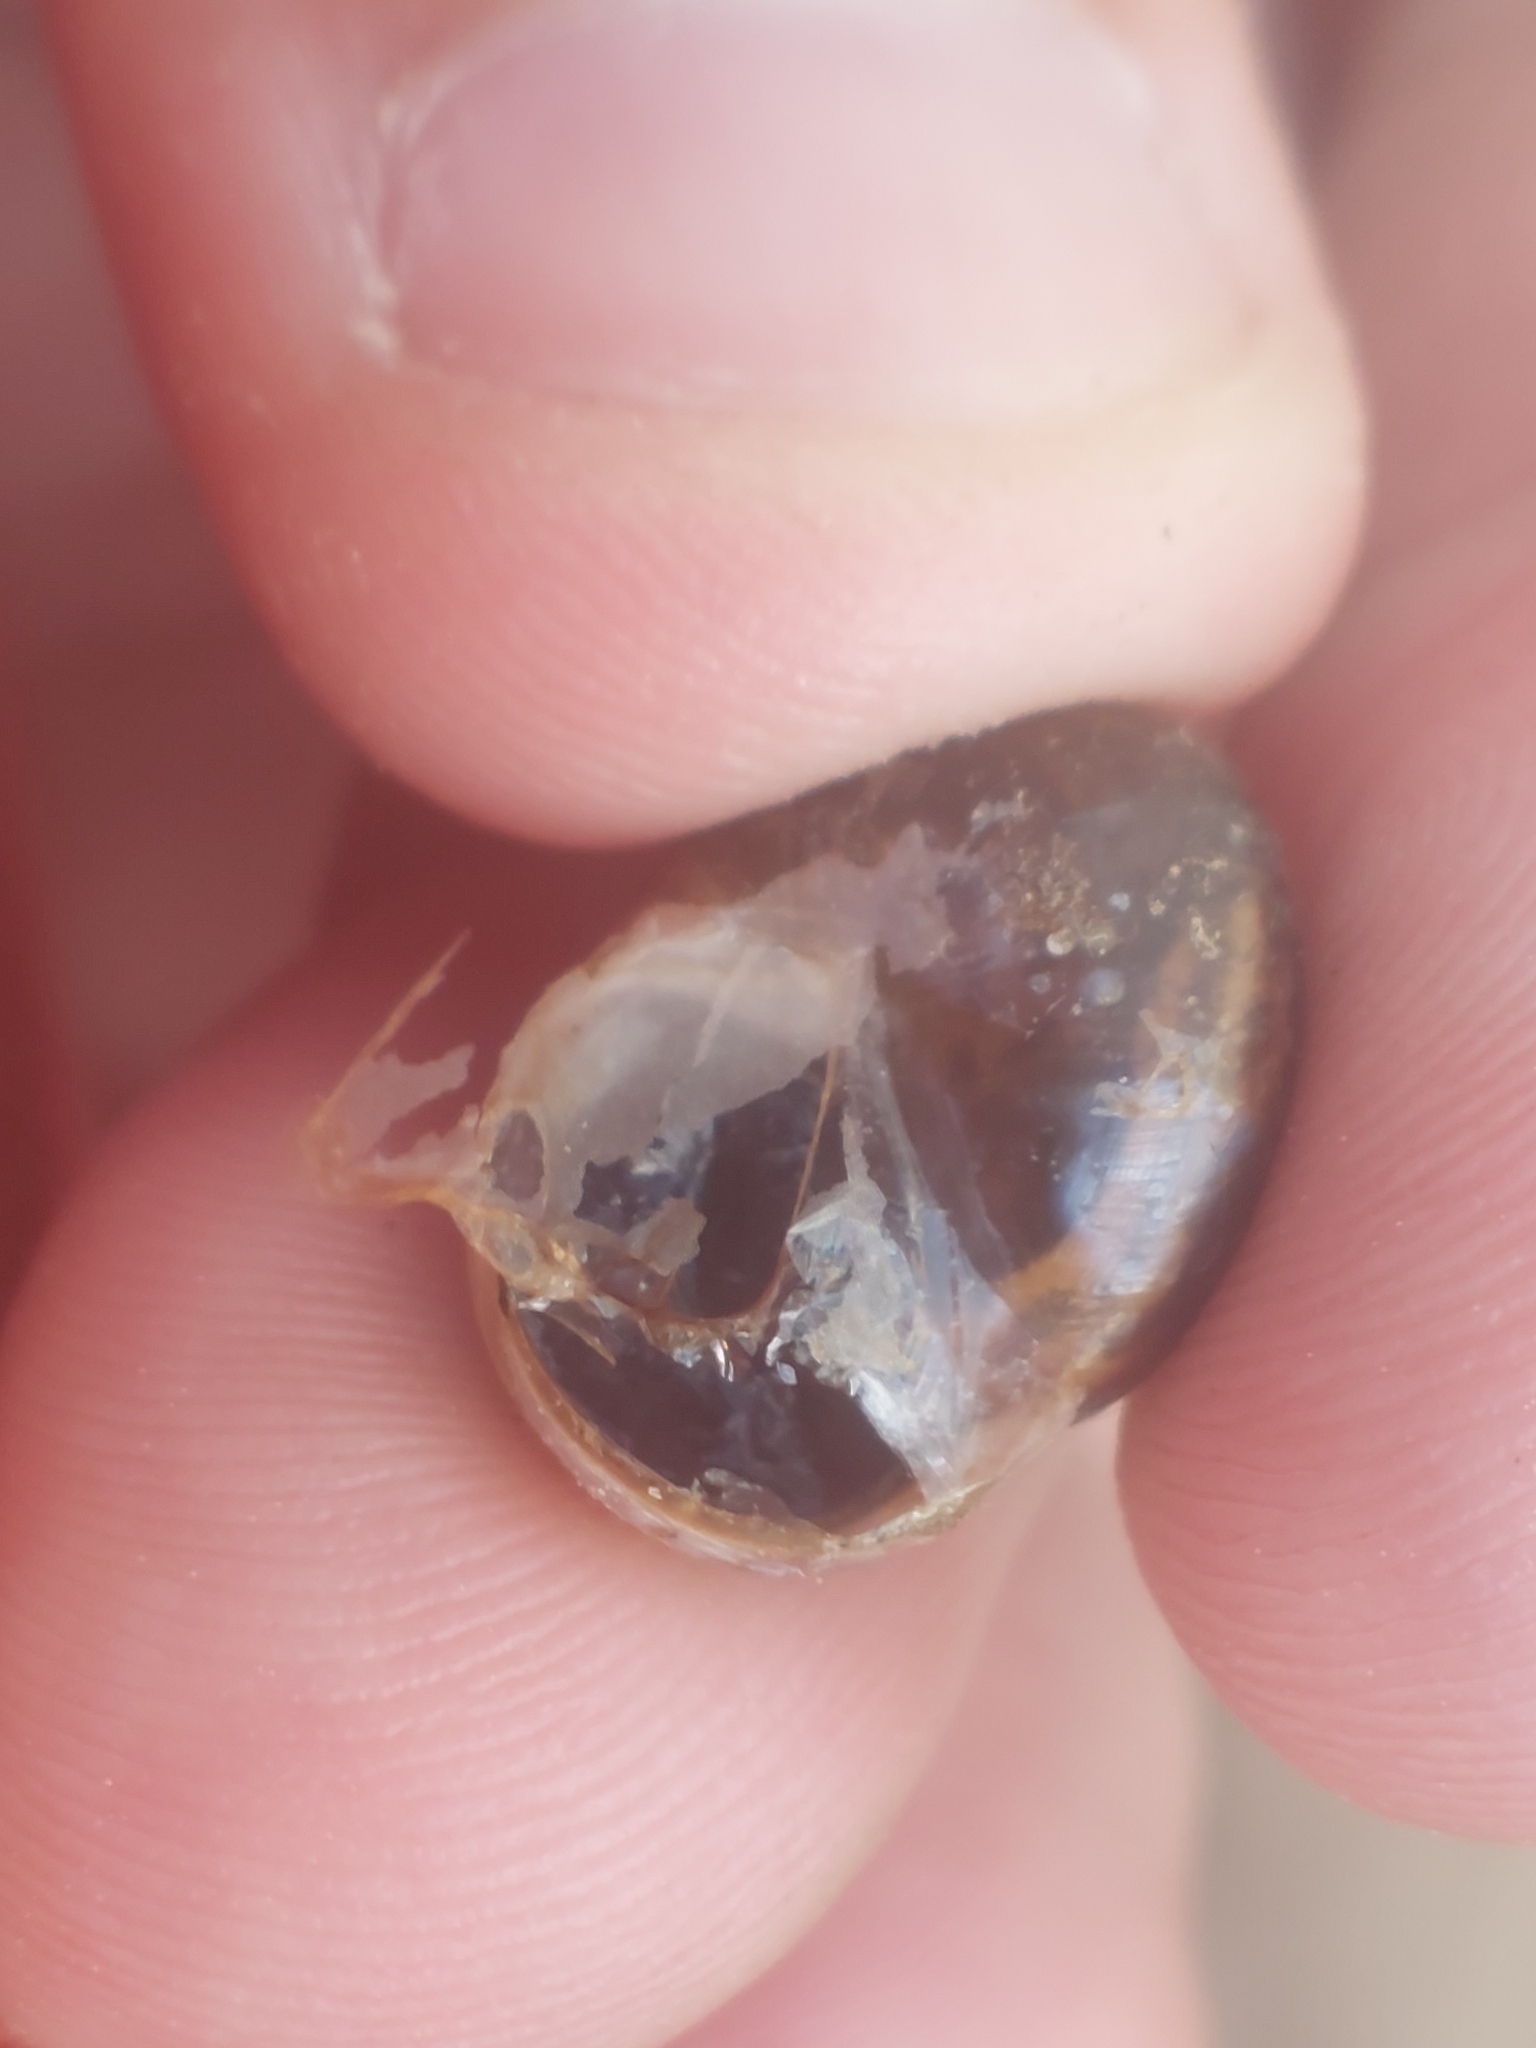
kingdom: Animalia
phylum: Mollusca
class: Gastropoda
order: Stylommatophora
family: Helicidae
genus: Arianta
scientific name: Arianta arbustorum
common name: Copse snail
